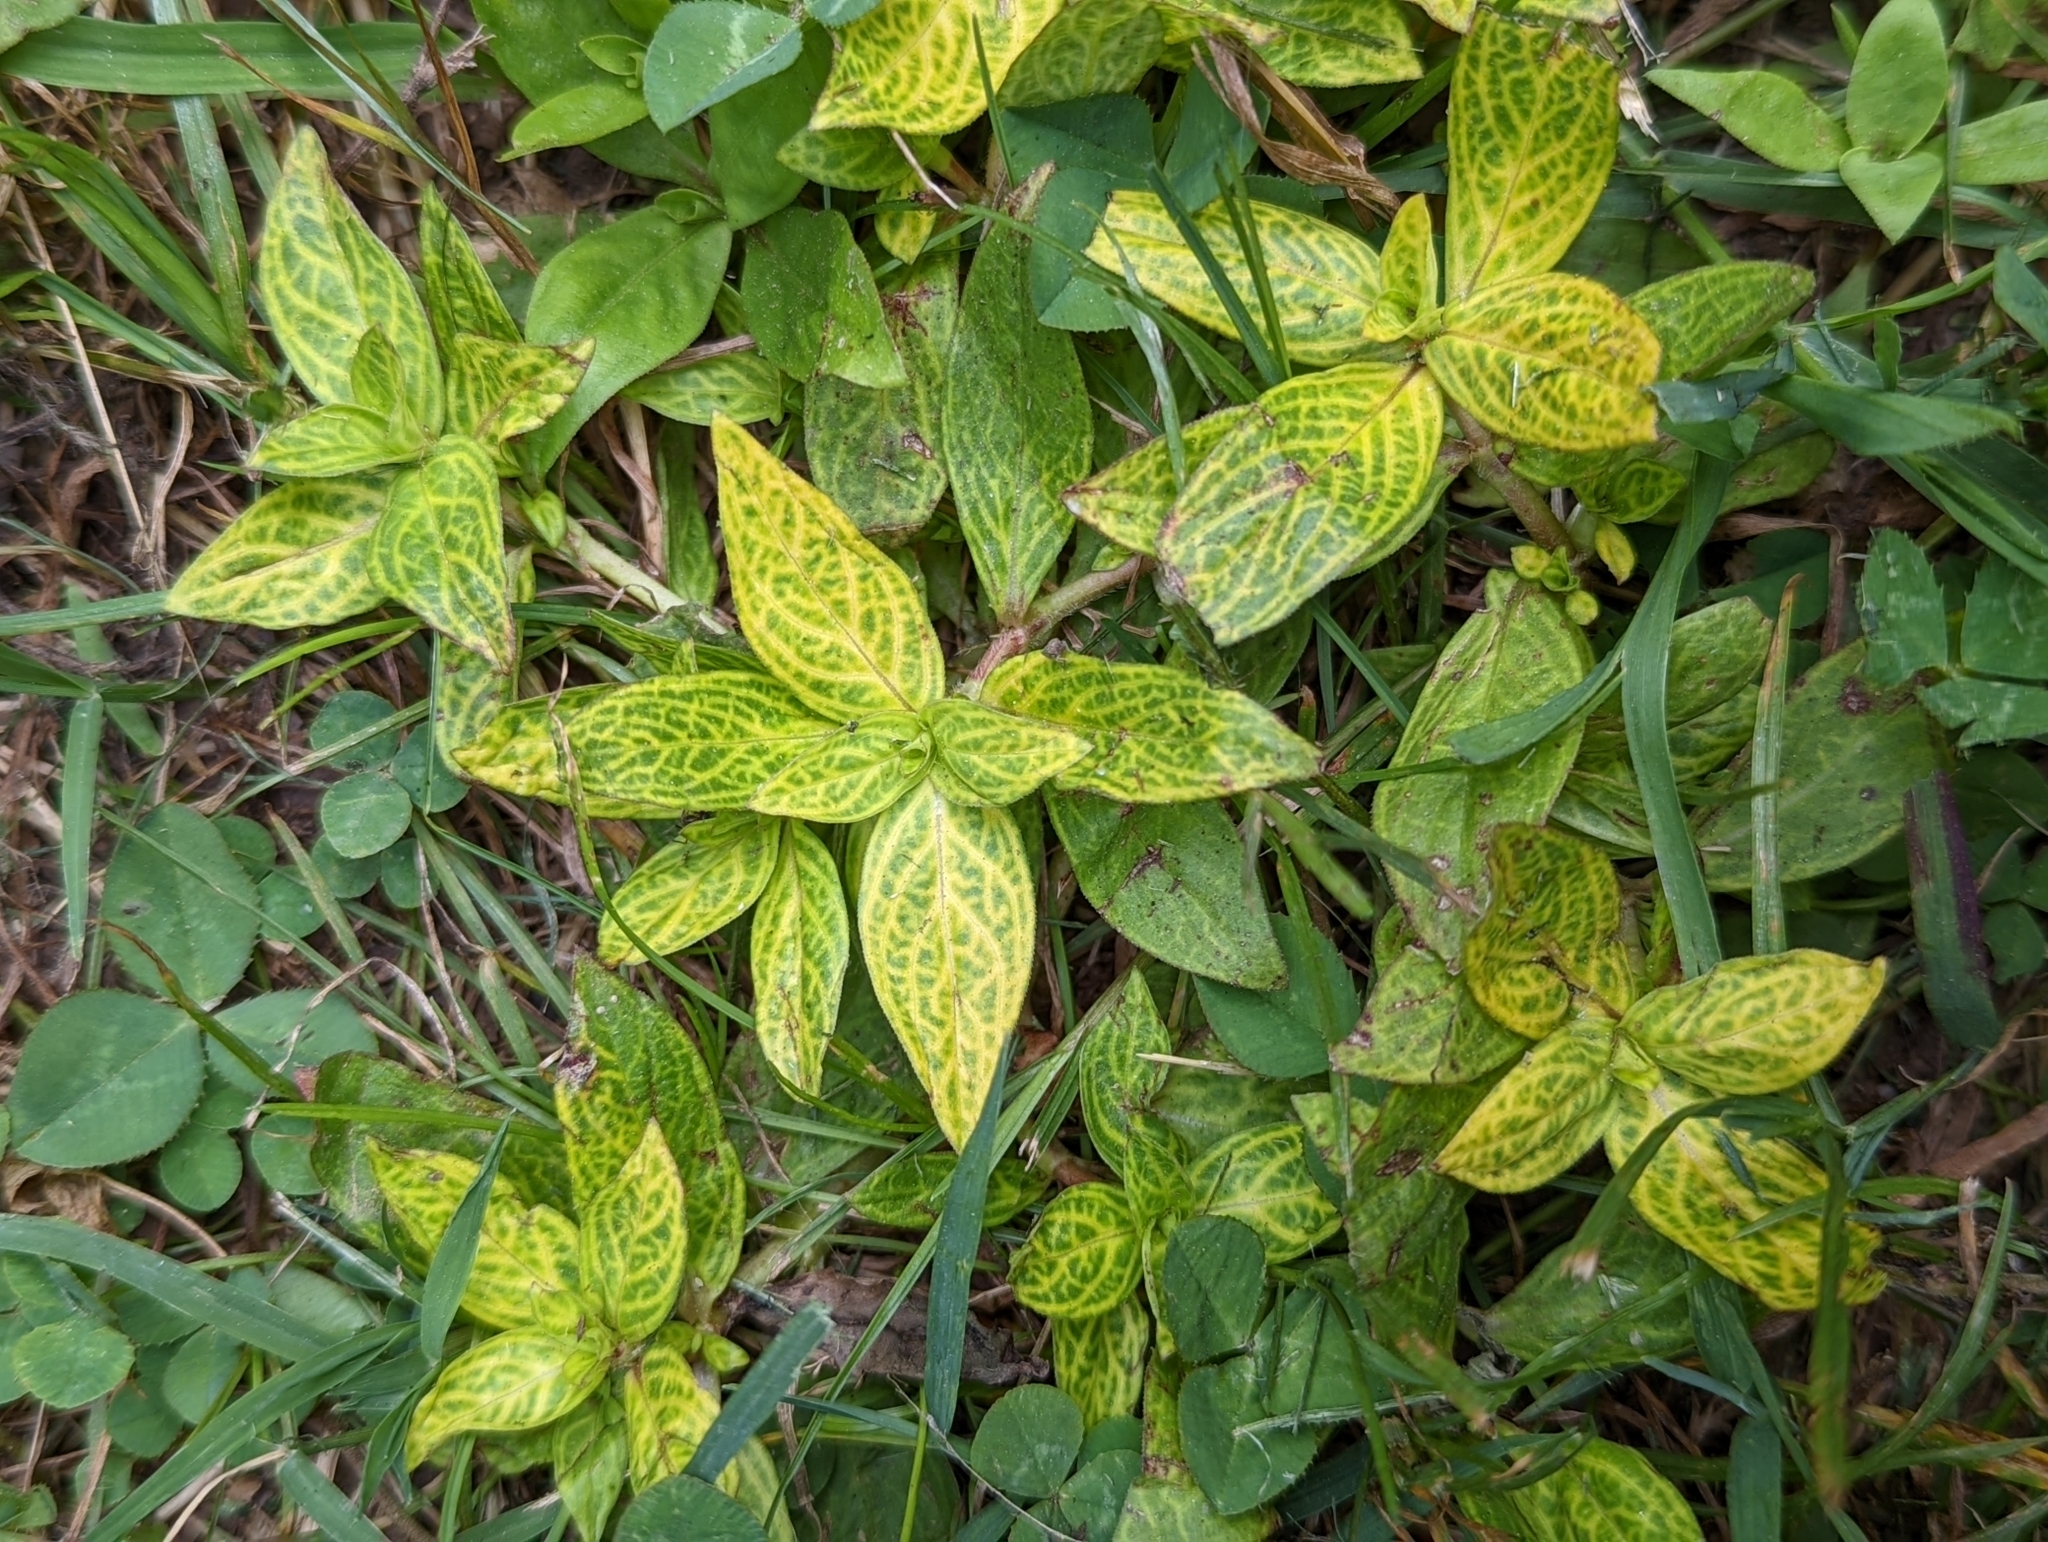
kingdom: Plantae
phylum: Tracheophyta
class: Magnoliopsida
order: Gentianales
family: Rubiaceae
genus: Diodia
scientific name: Diodia virginiana
